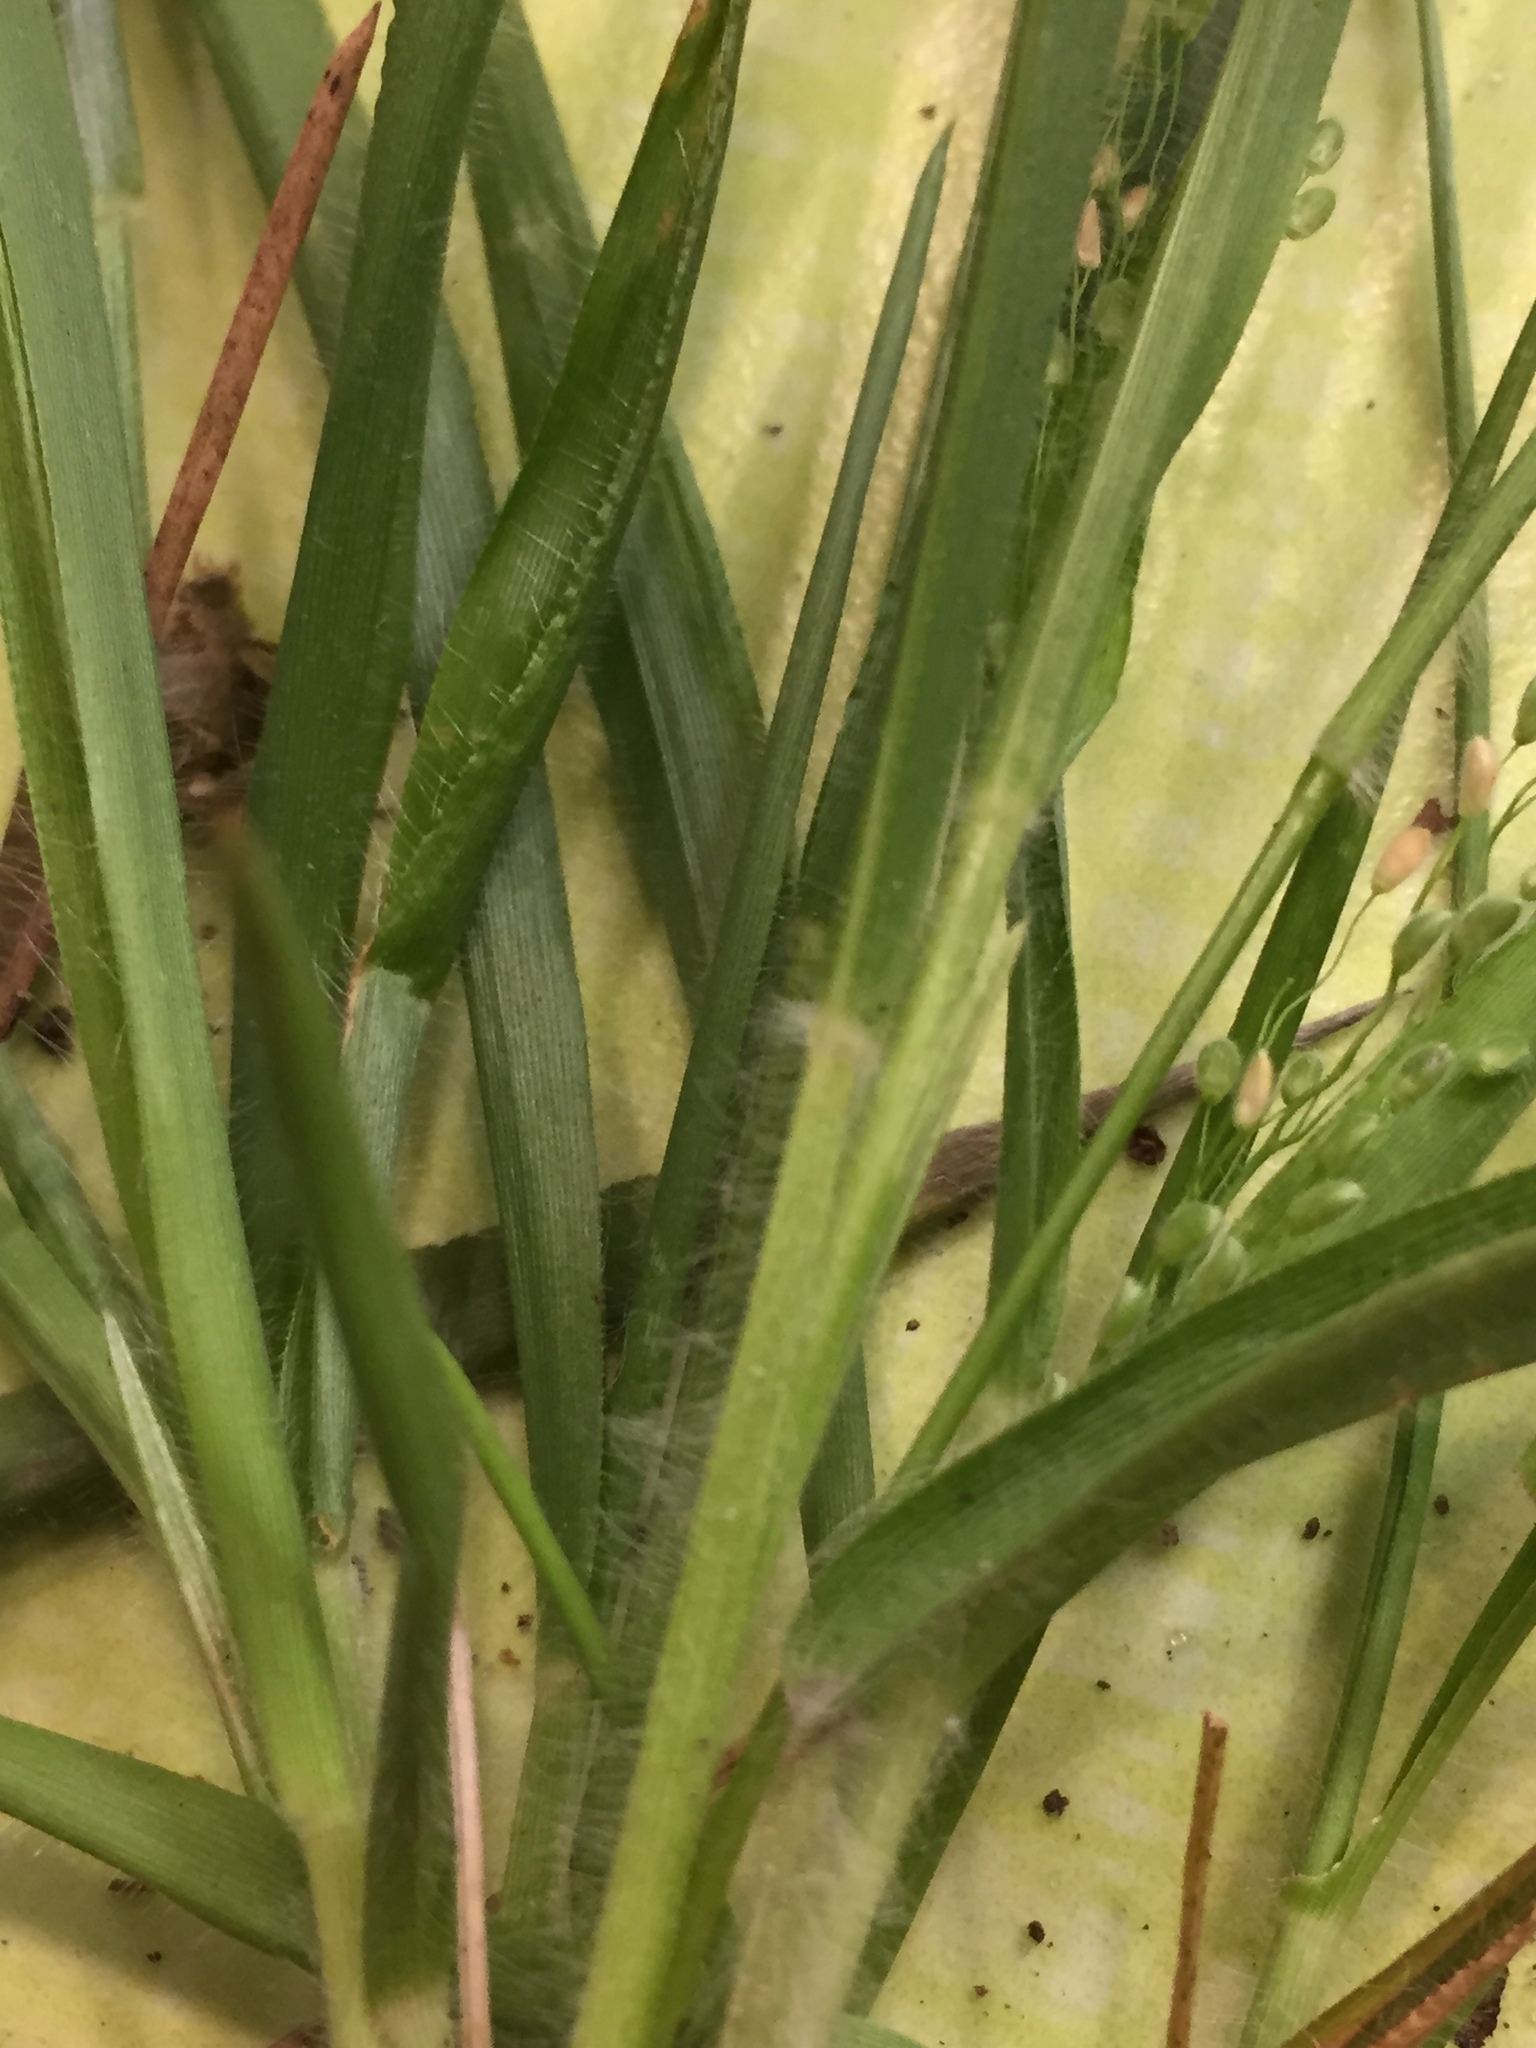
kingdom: Plantae
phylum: Tracheophyta
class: Liliopsida
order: Poales
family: Poaceae
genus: Dichanthelium
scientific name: Dichanthelium laxiflorum
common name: Soft-tuft panic grass
